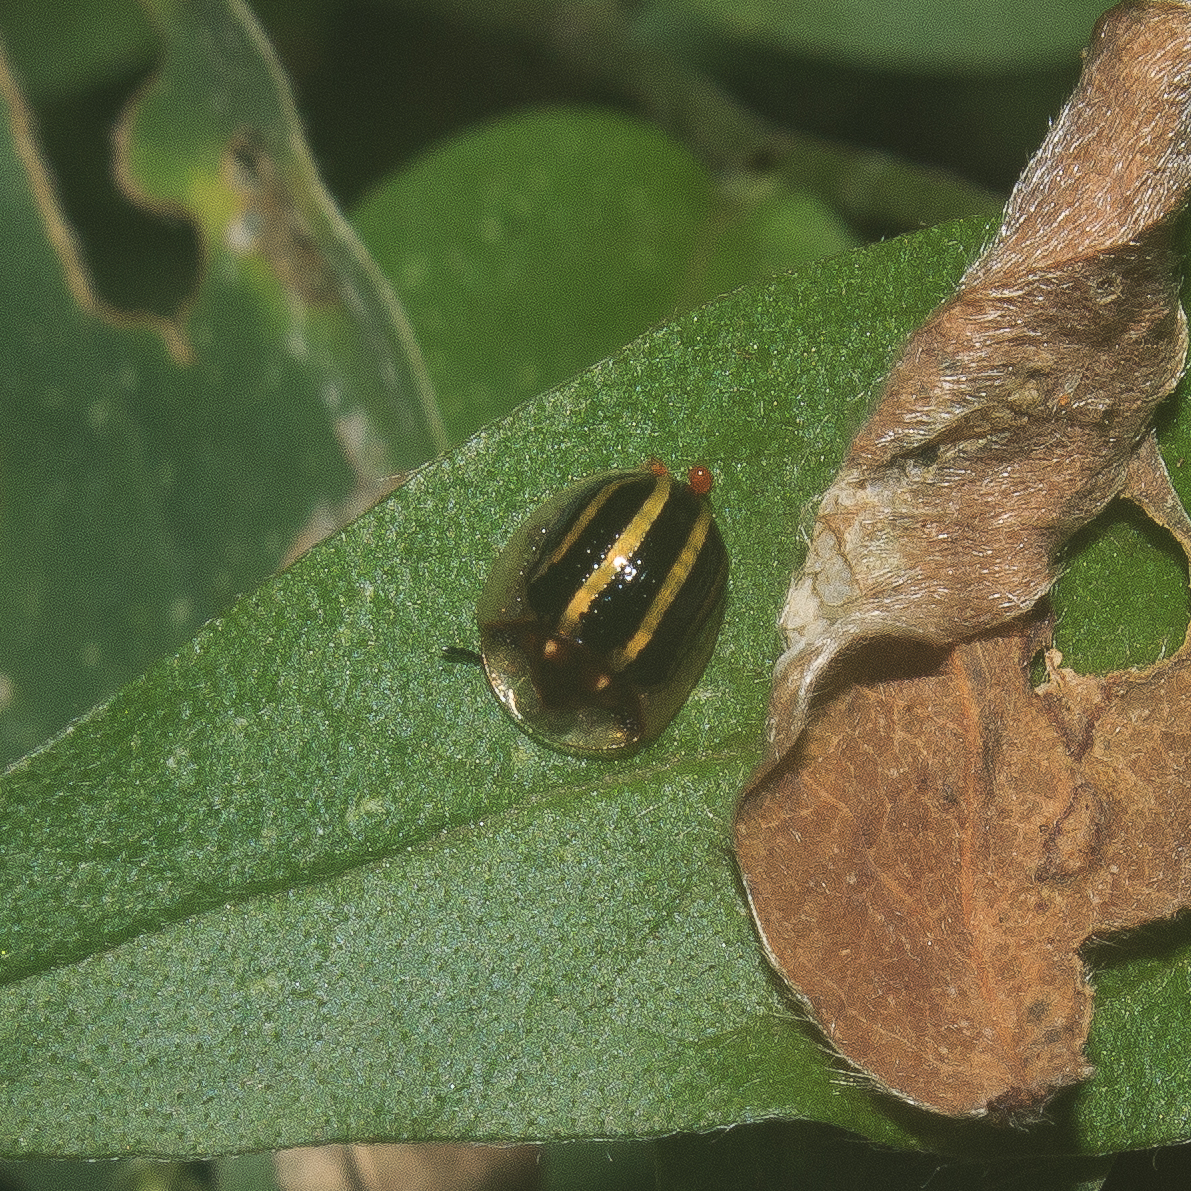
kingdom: Animalia
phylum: Arthropoda
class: Insecta
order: Coleoptera
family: Chrysomelidae
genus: Agroiconota
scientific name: Agroiconota propinqua
